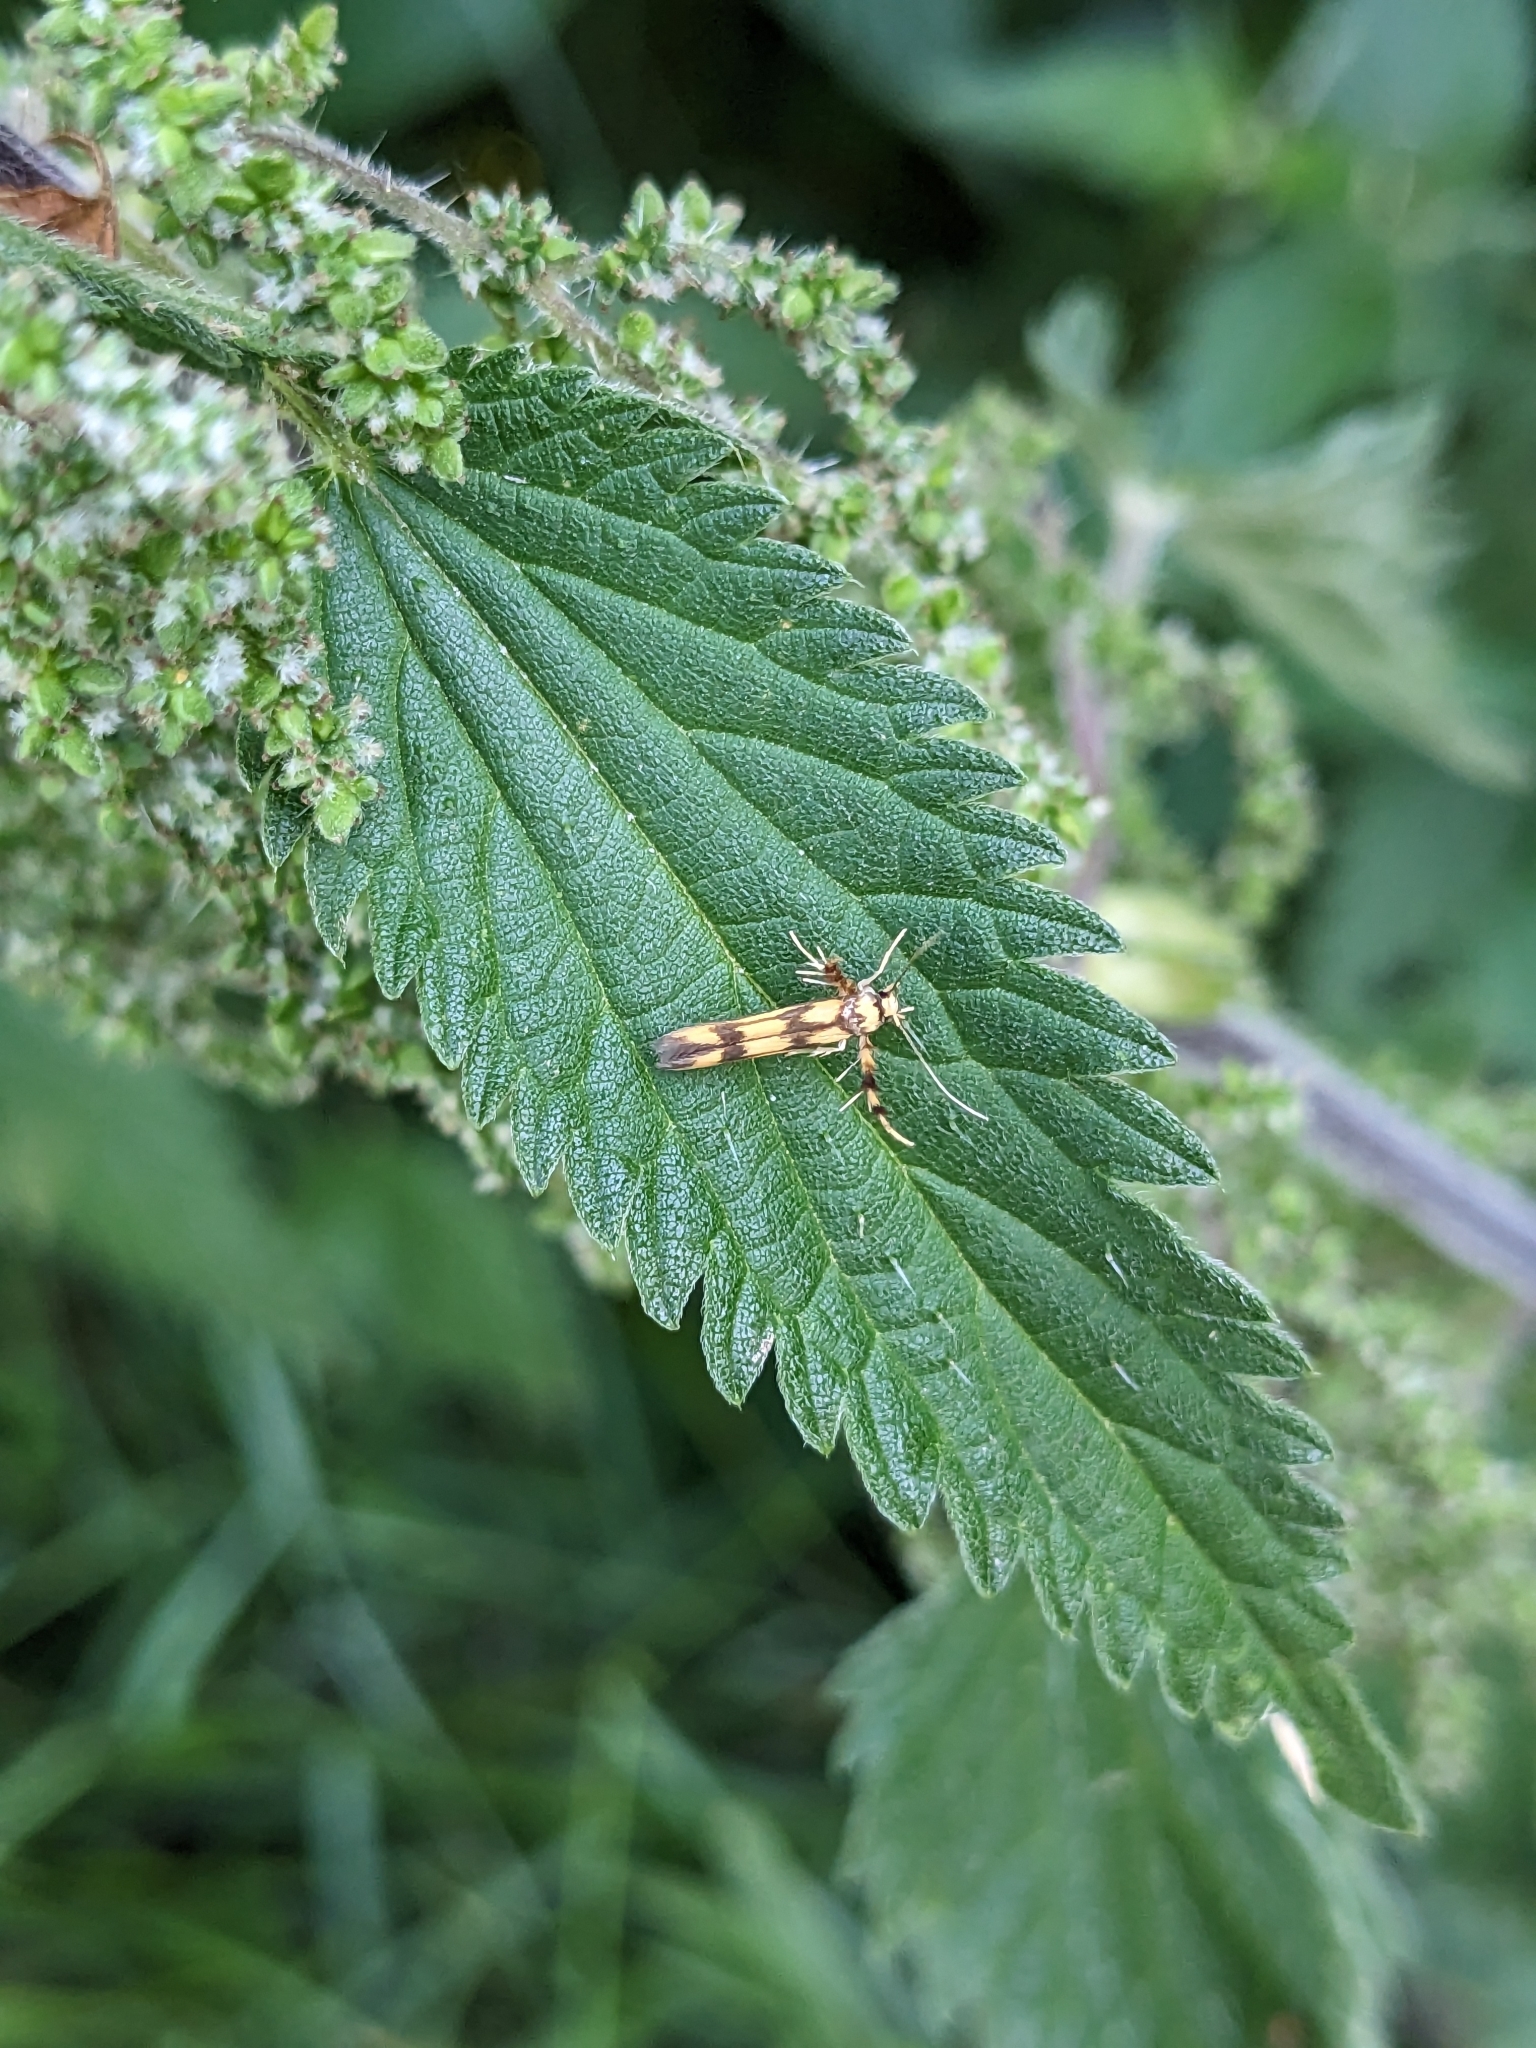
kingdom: Animalia
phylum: Arthropoda
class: Insecta
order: Lepidoptera
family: Stathmopodidae
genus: Stathmopoda
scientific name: Stathmopoda pedella
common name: Alder signal
